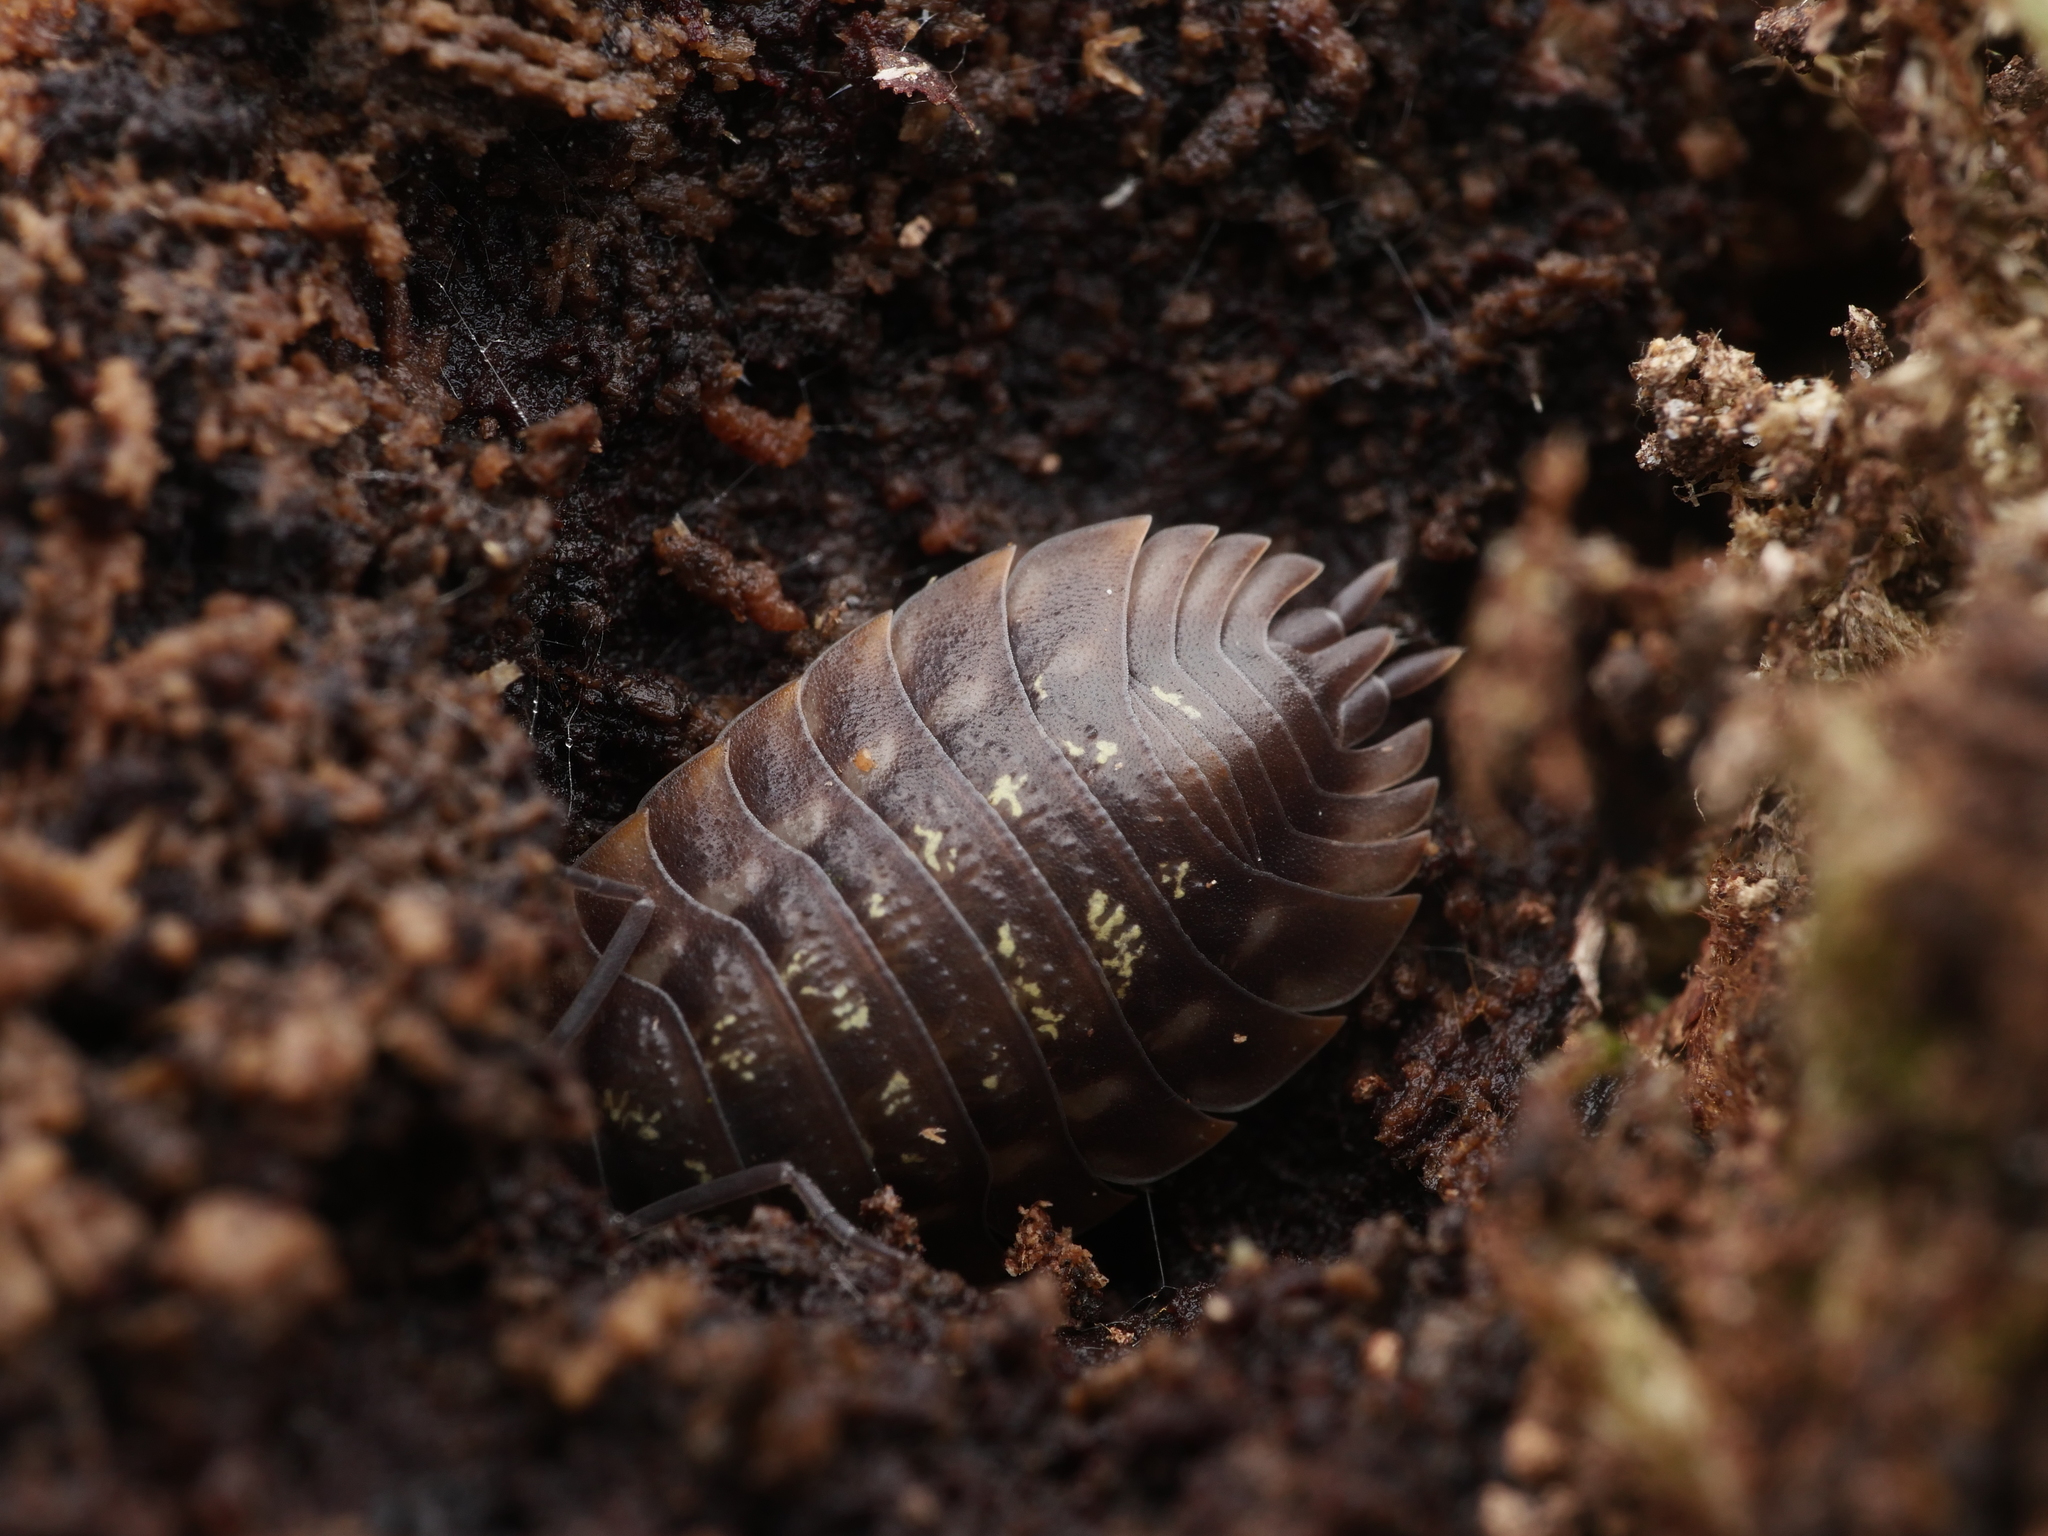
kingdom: Animalia
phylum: Arthropoda
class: Malacostraca
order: Isopoda
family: Oniscidae
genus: Oniscus
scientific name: Oniscus asellus
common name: Common shiny woodlouse
